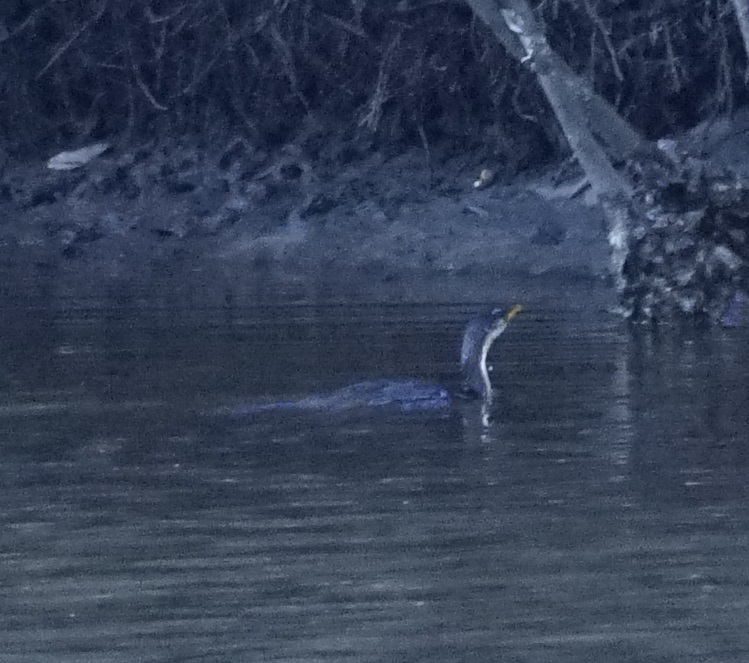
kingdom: Animalia
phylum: Chordata
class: Aves
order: Suliformes
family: Phalacrocoracidae
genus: Microcarbo
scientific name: Microcarbo melanoleucos
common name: Little pied cormorant
